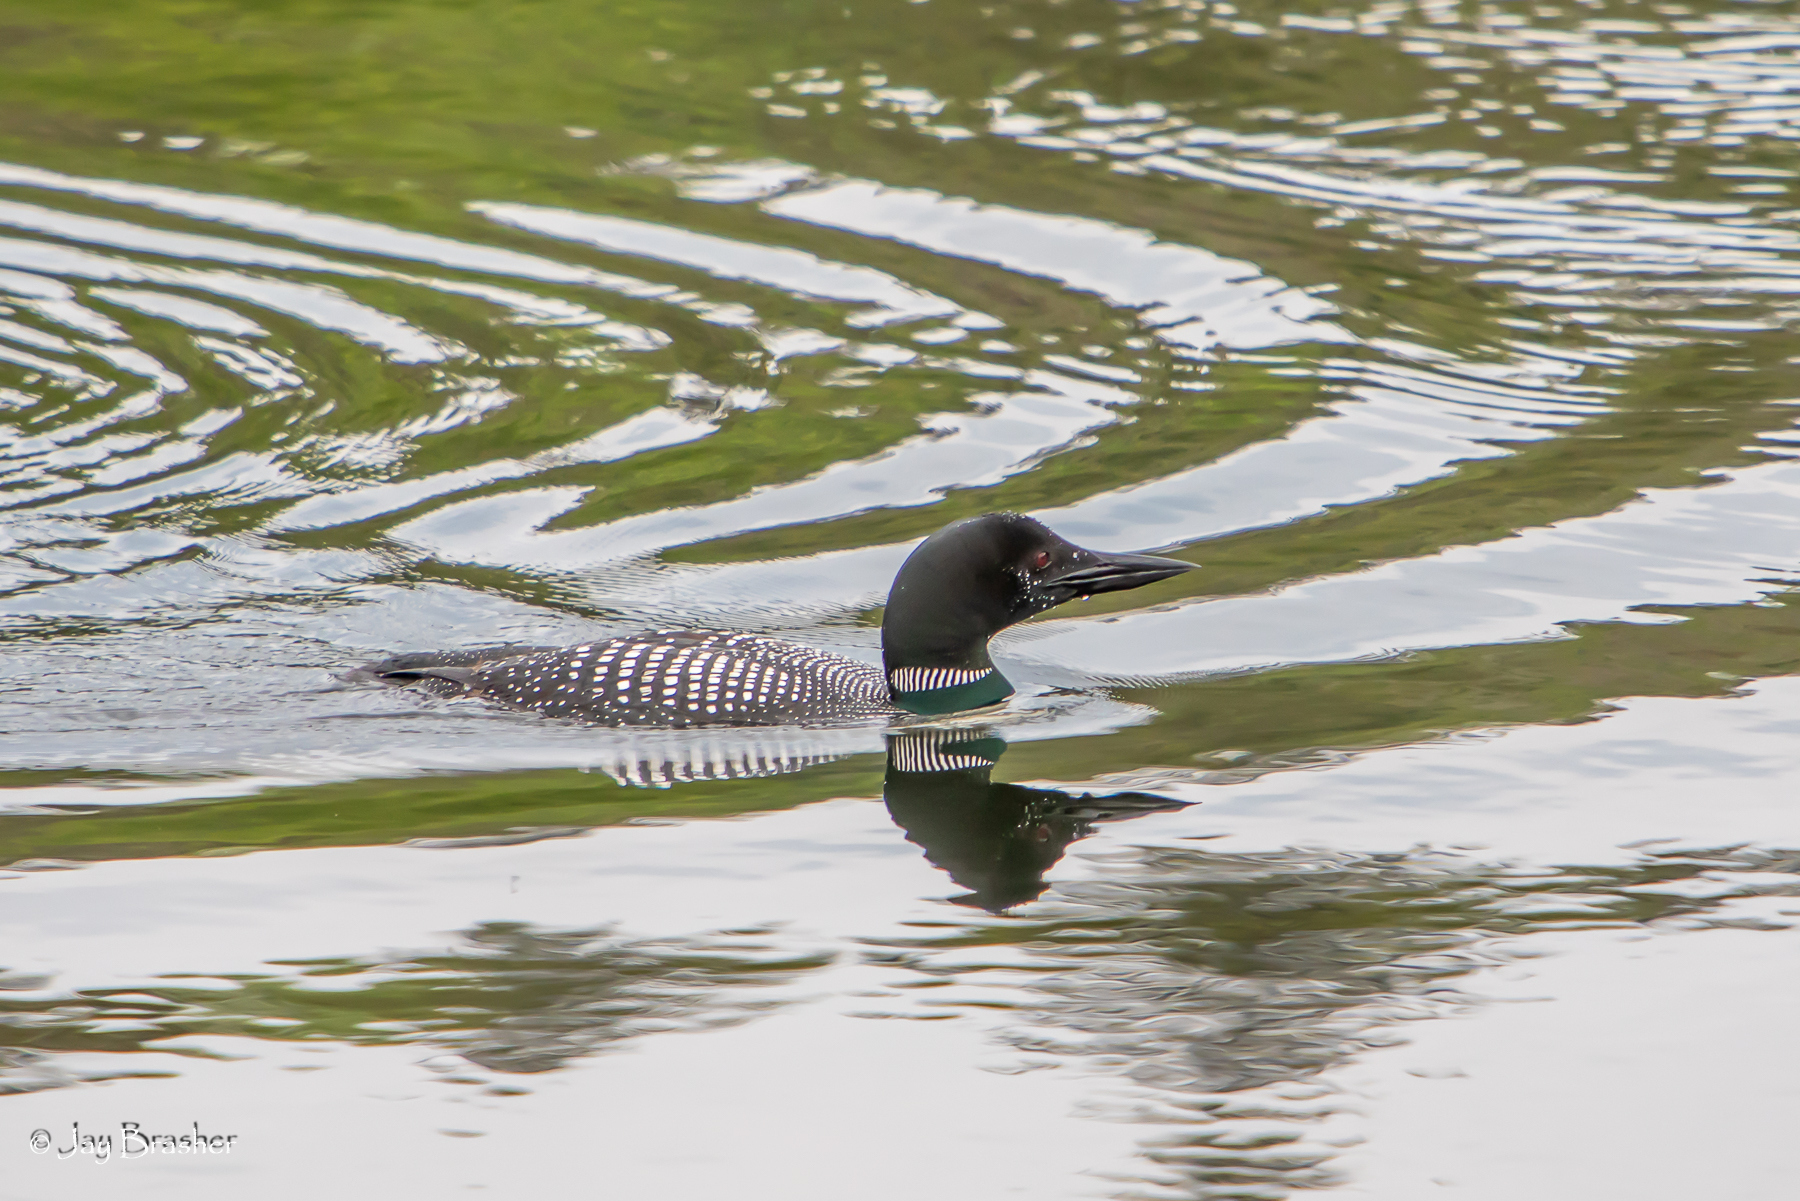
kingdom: Animalia
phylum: Chordata
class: Aves
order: Gaviiformes
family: Gaviidae
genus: Gavia
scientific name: Gavia immer
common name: Common loon
